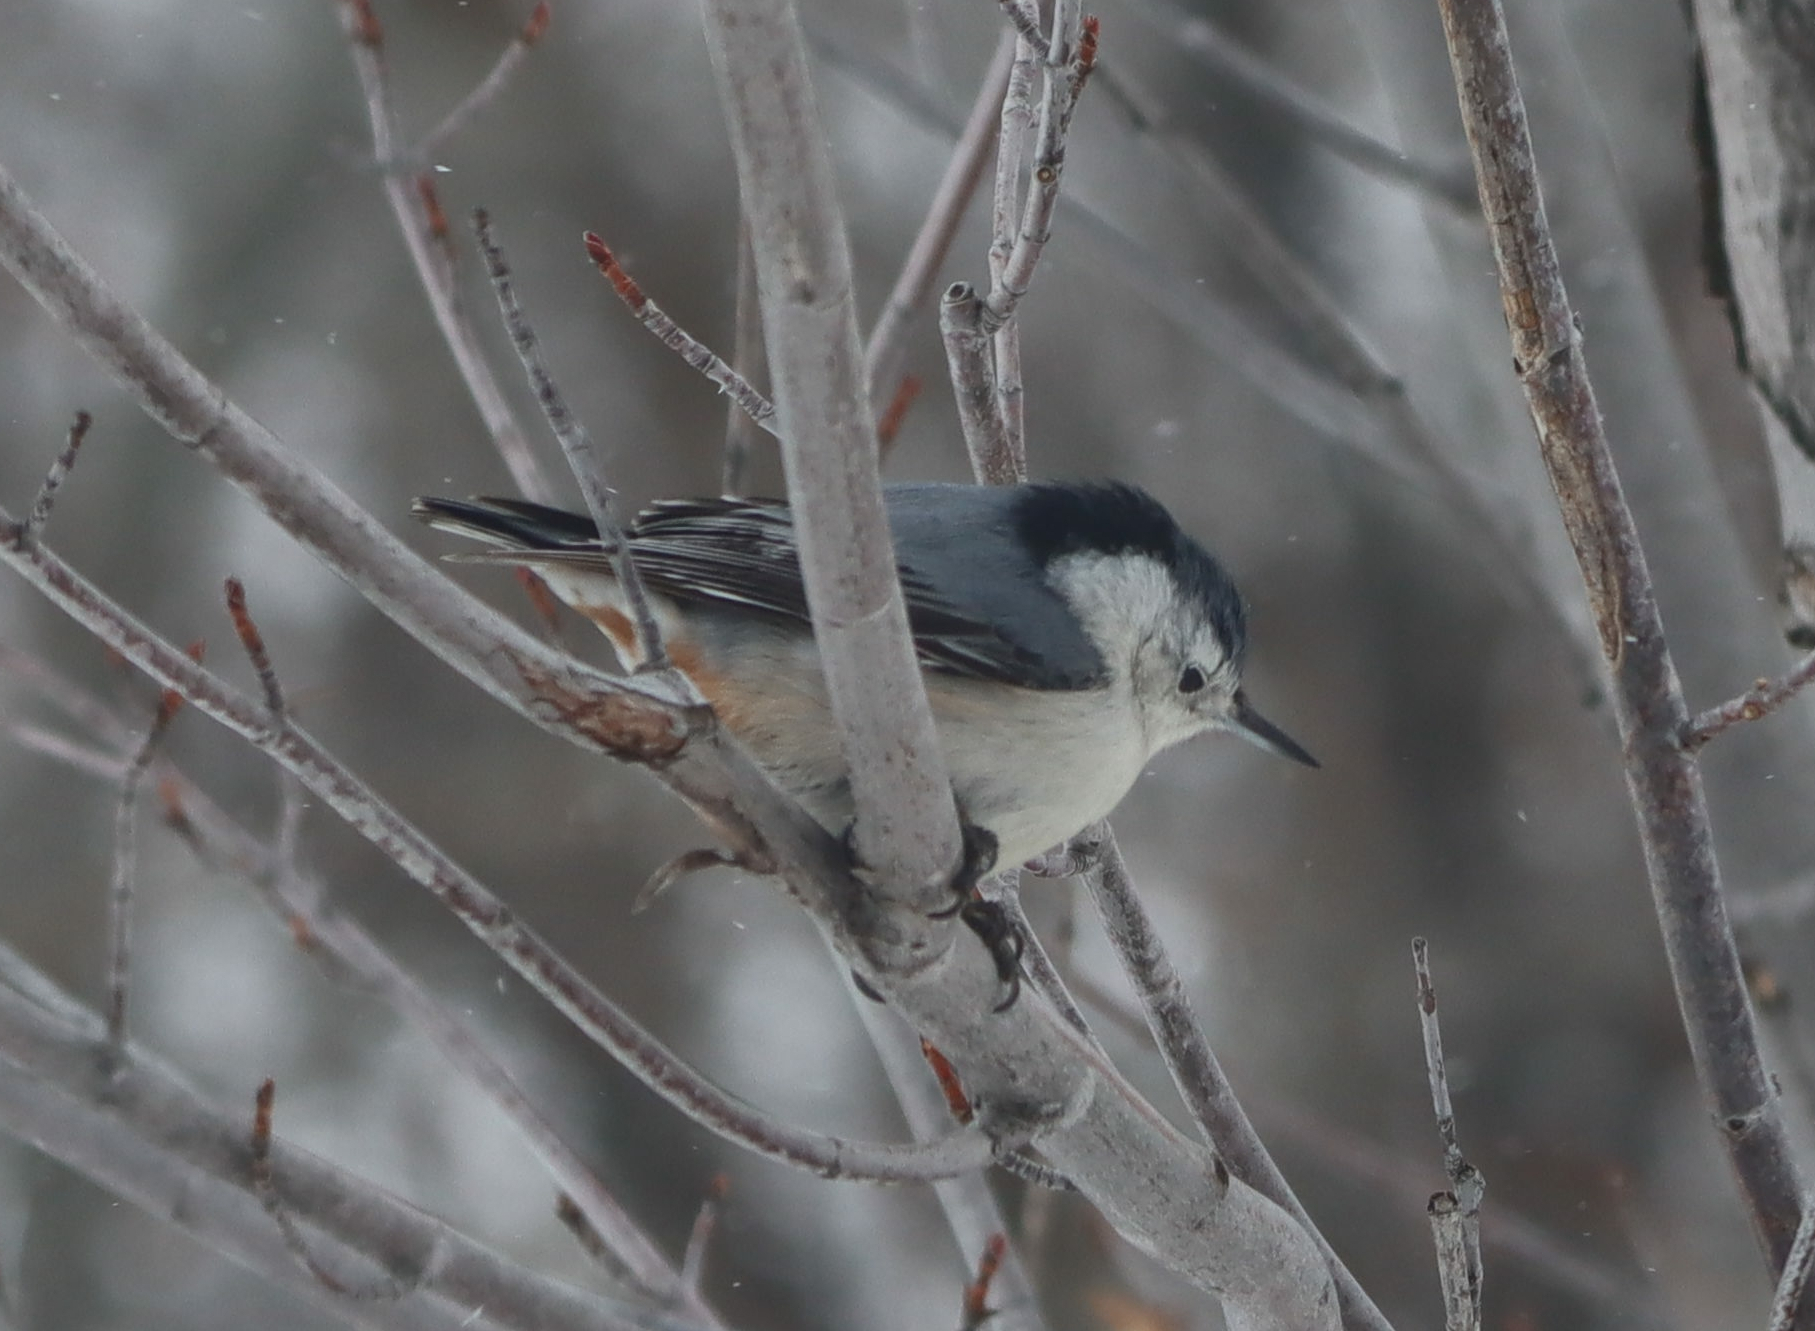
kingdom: Animalia
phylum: Chordata
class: Aves
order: Passeriformes
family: Sittidae
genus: Sitta
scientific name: Sitta carolinensis
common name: White-breasted nuthatch
